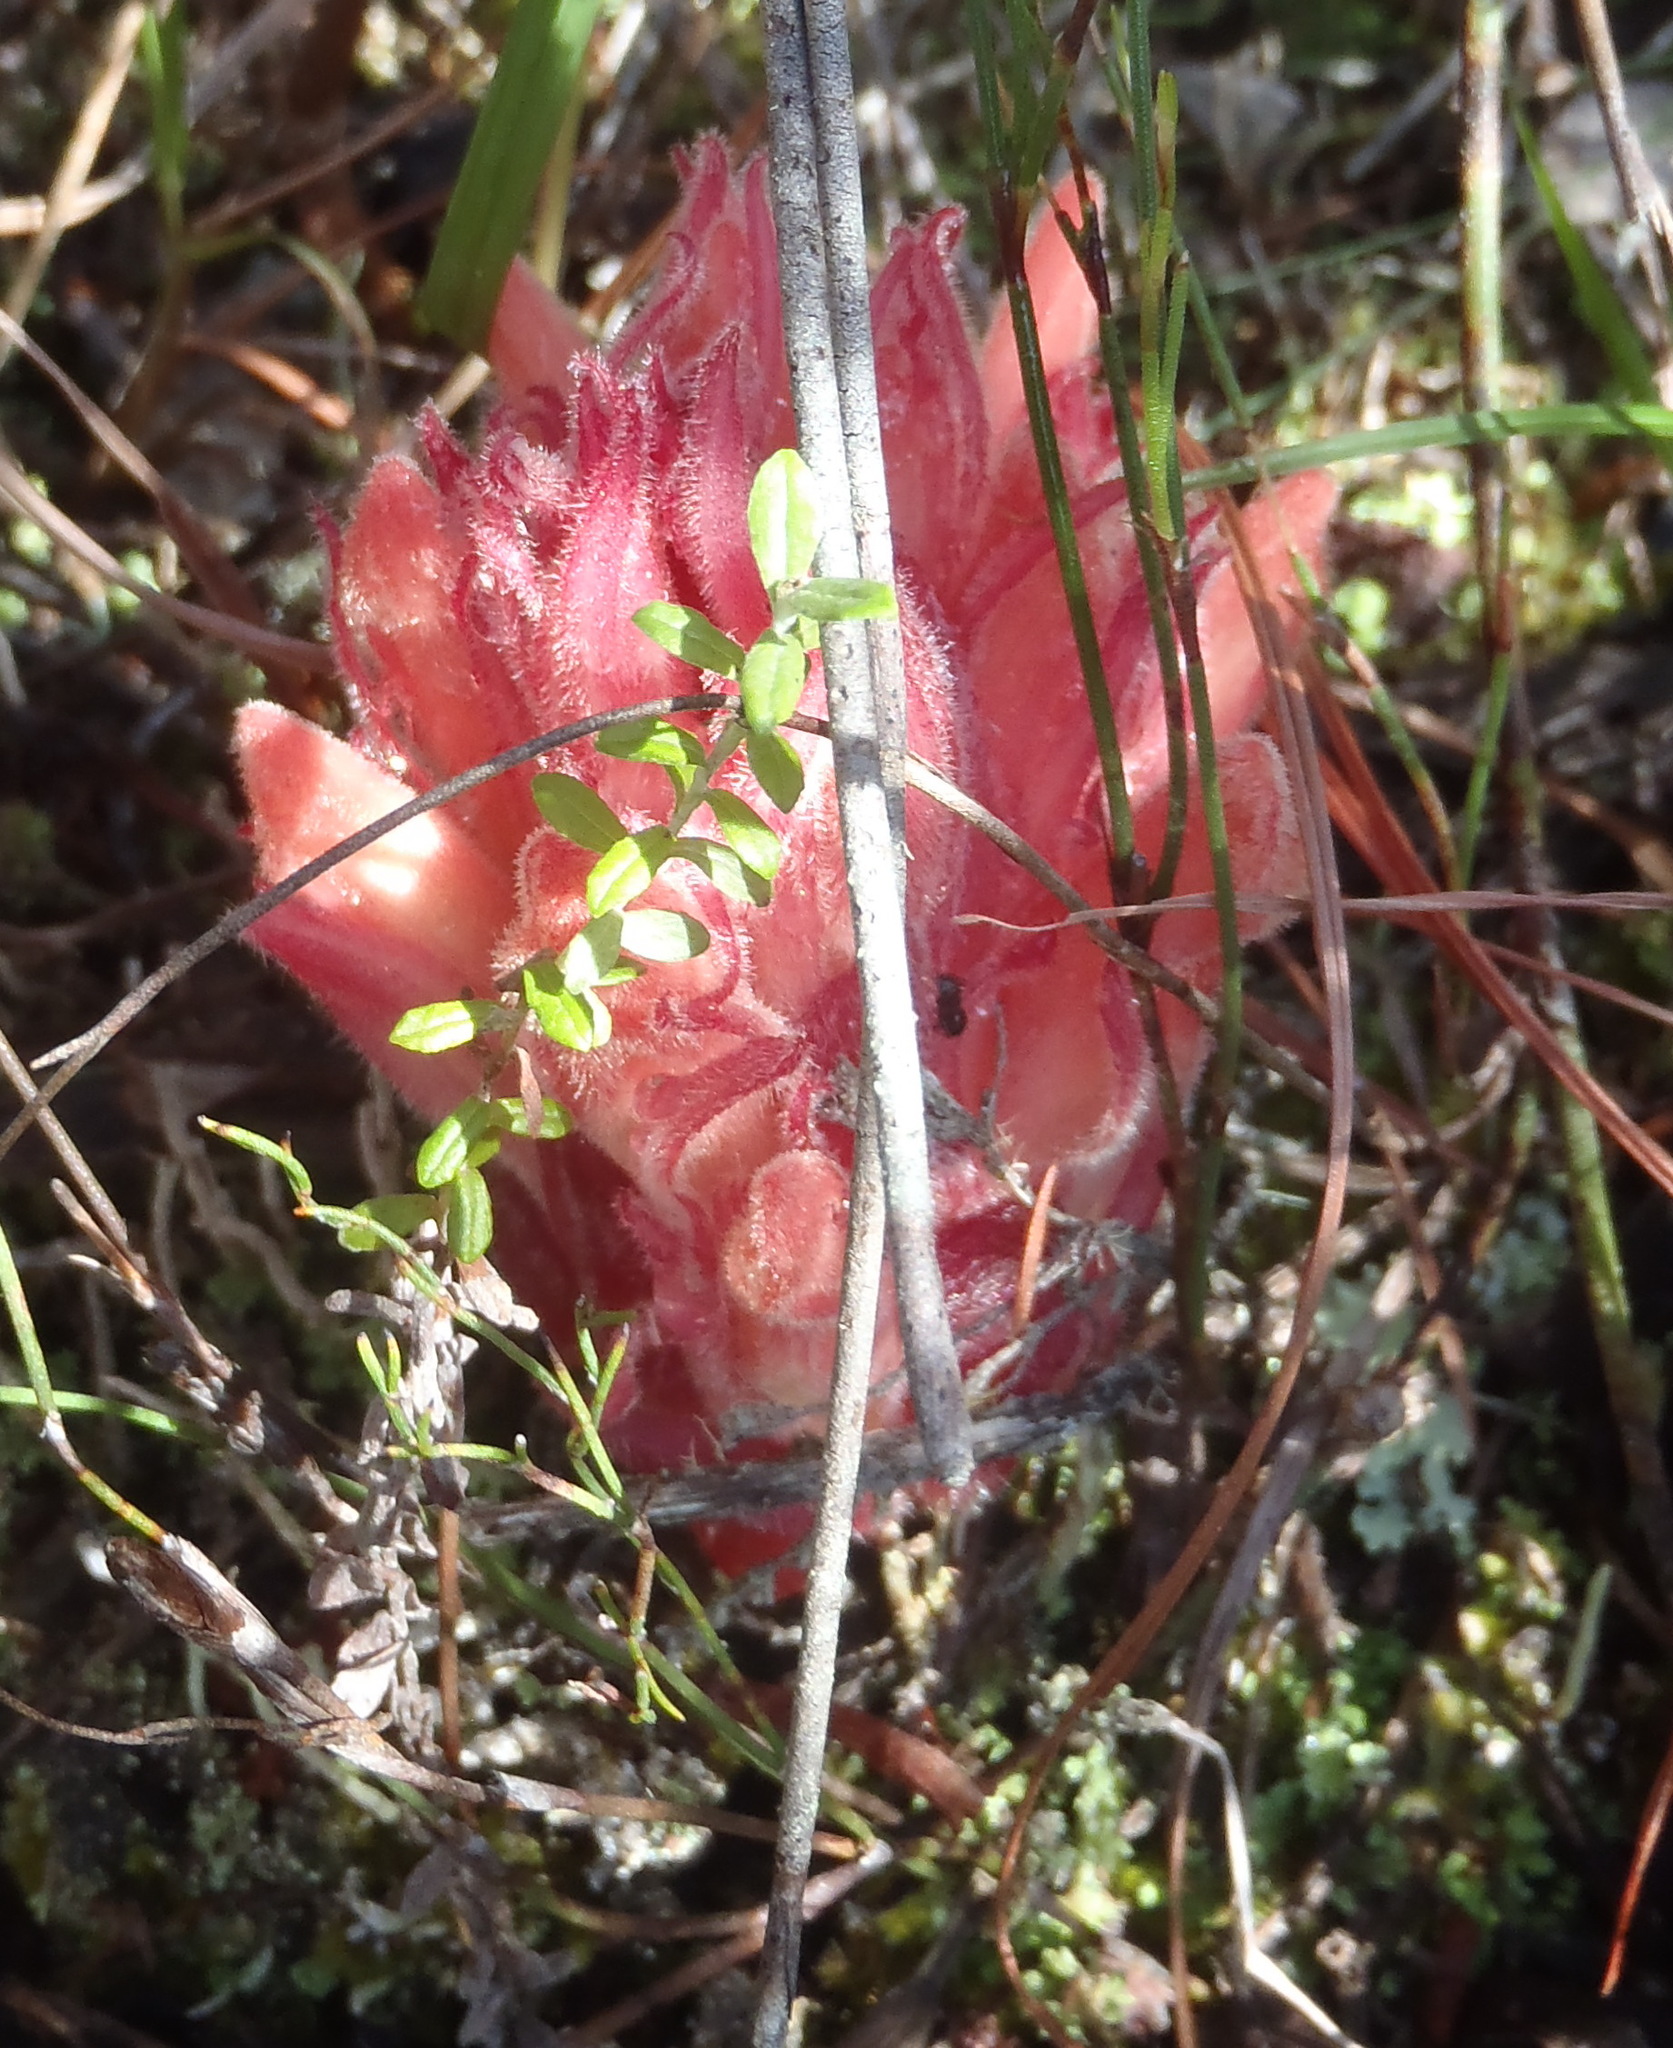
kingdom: Plantae
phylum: Tracheophyta
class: Magnoliopsida
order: Lamiales
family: Orobanchaceae
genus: Hyobanche
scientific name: Hyobanche rubra
